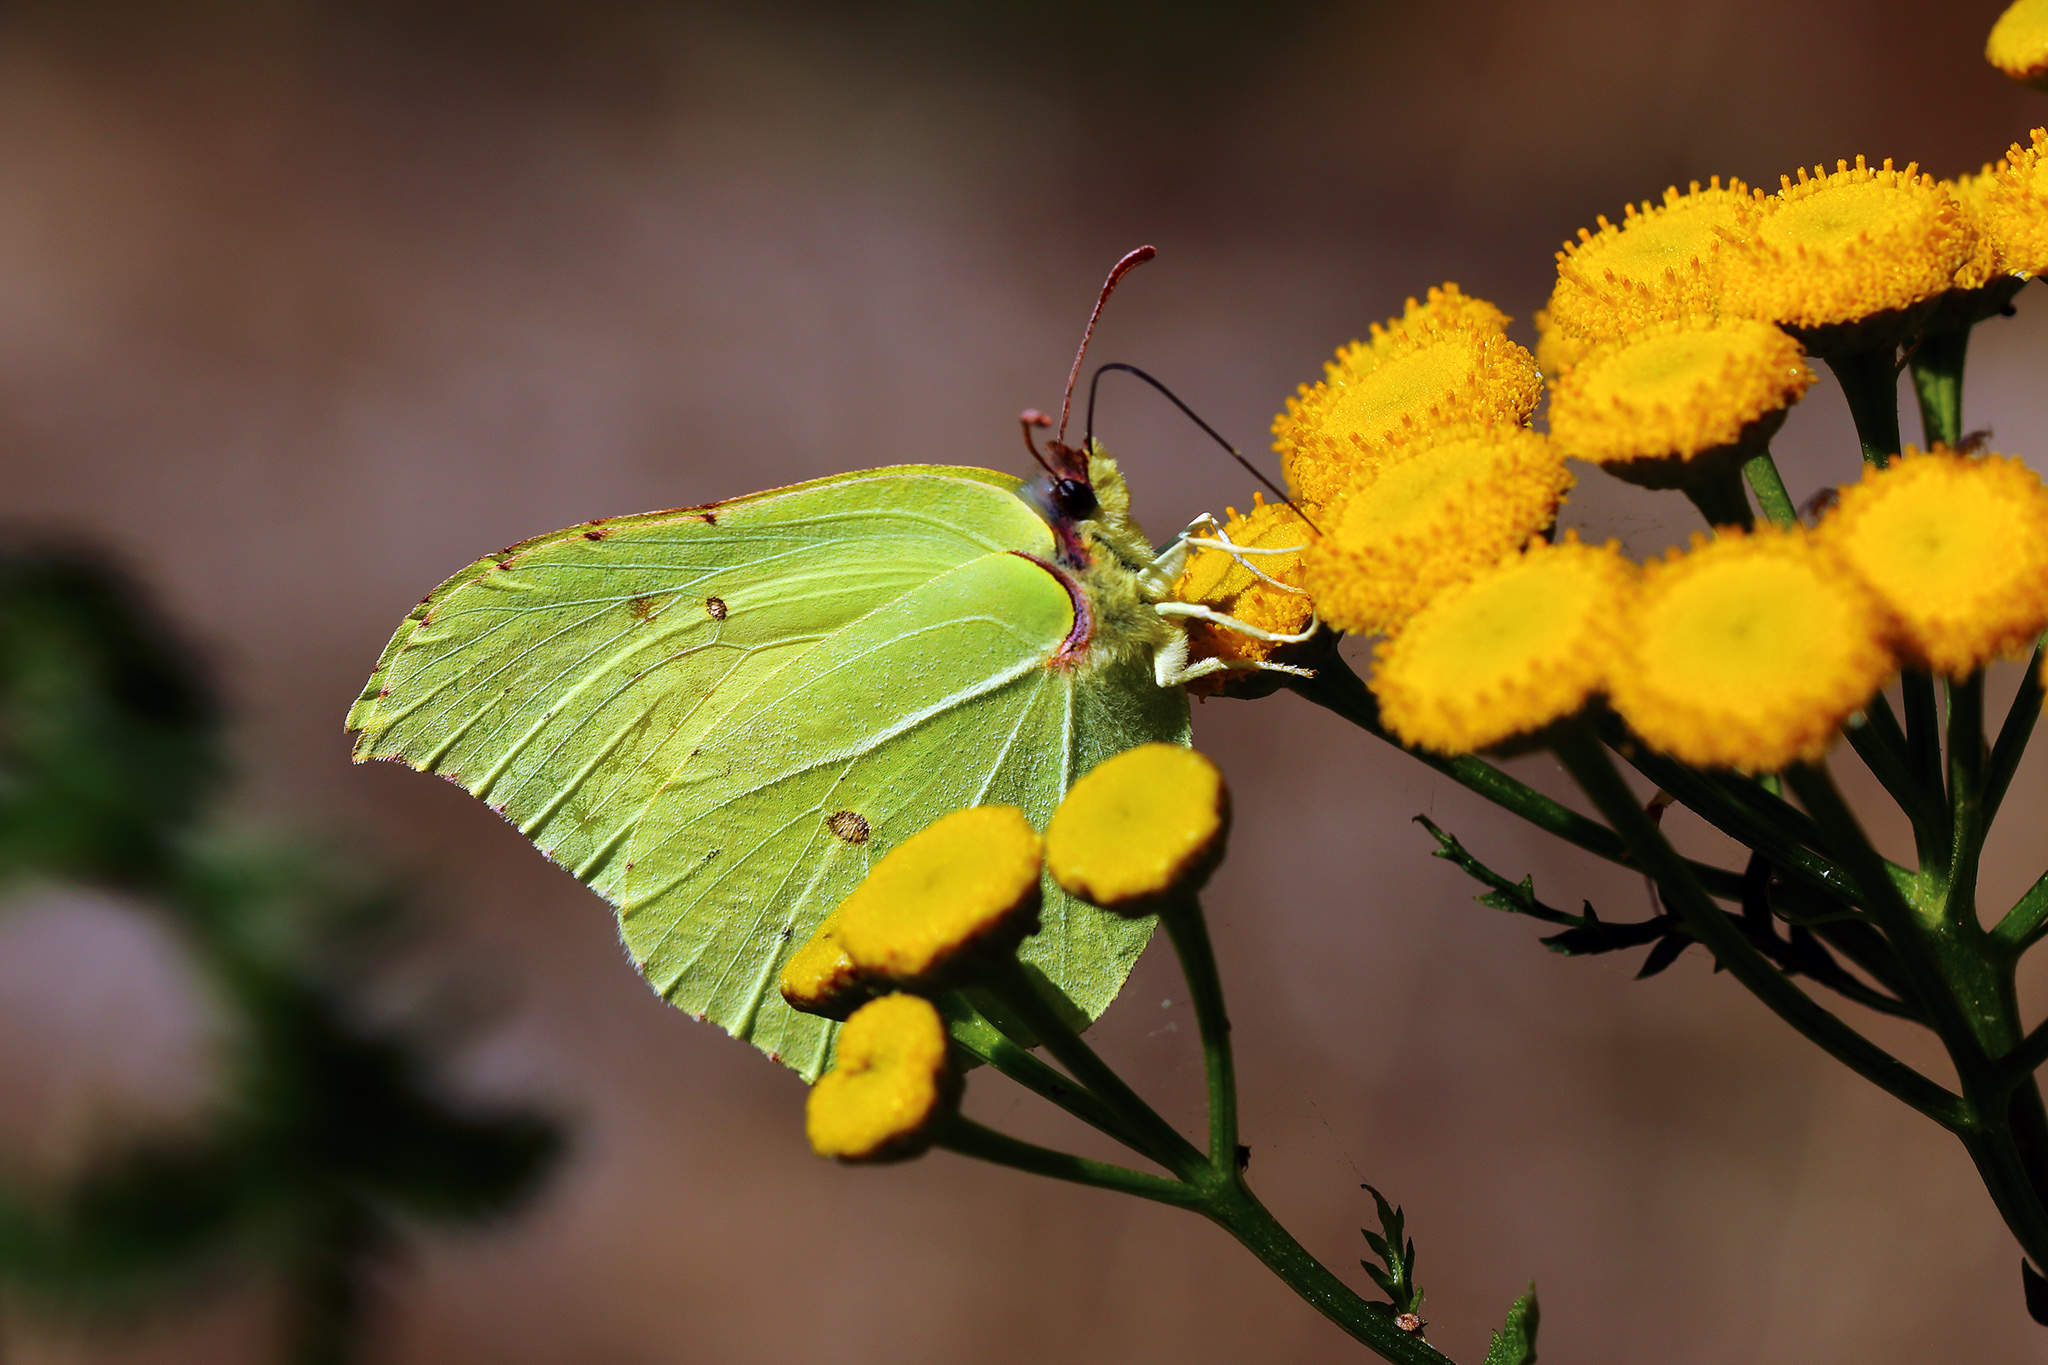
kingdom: Animalia
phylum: Arthropoda
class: Insecta
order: Lepidoptera
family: Pieridae
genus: Gonepteryx
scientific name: Gonepteryx rhamni
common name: Brimstone
